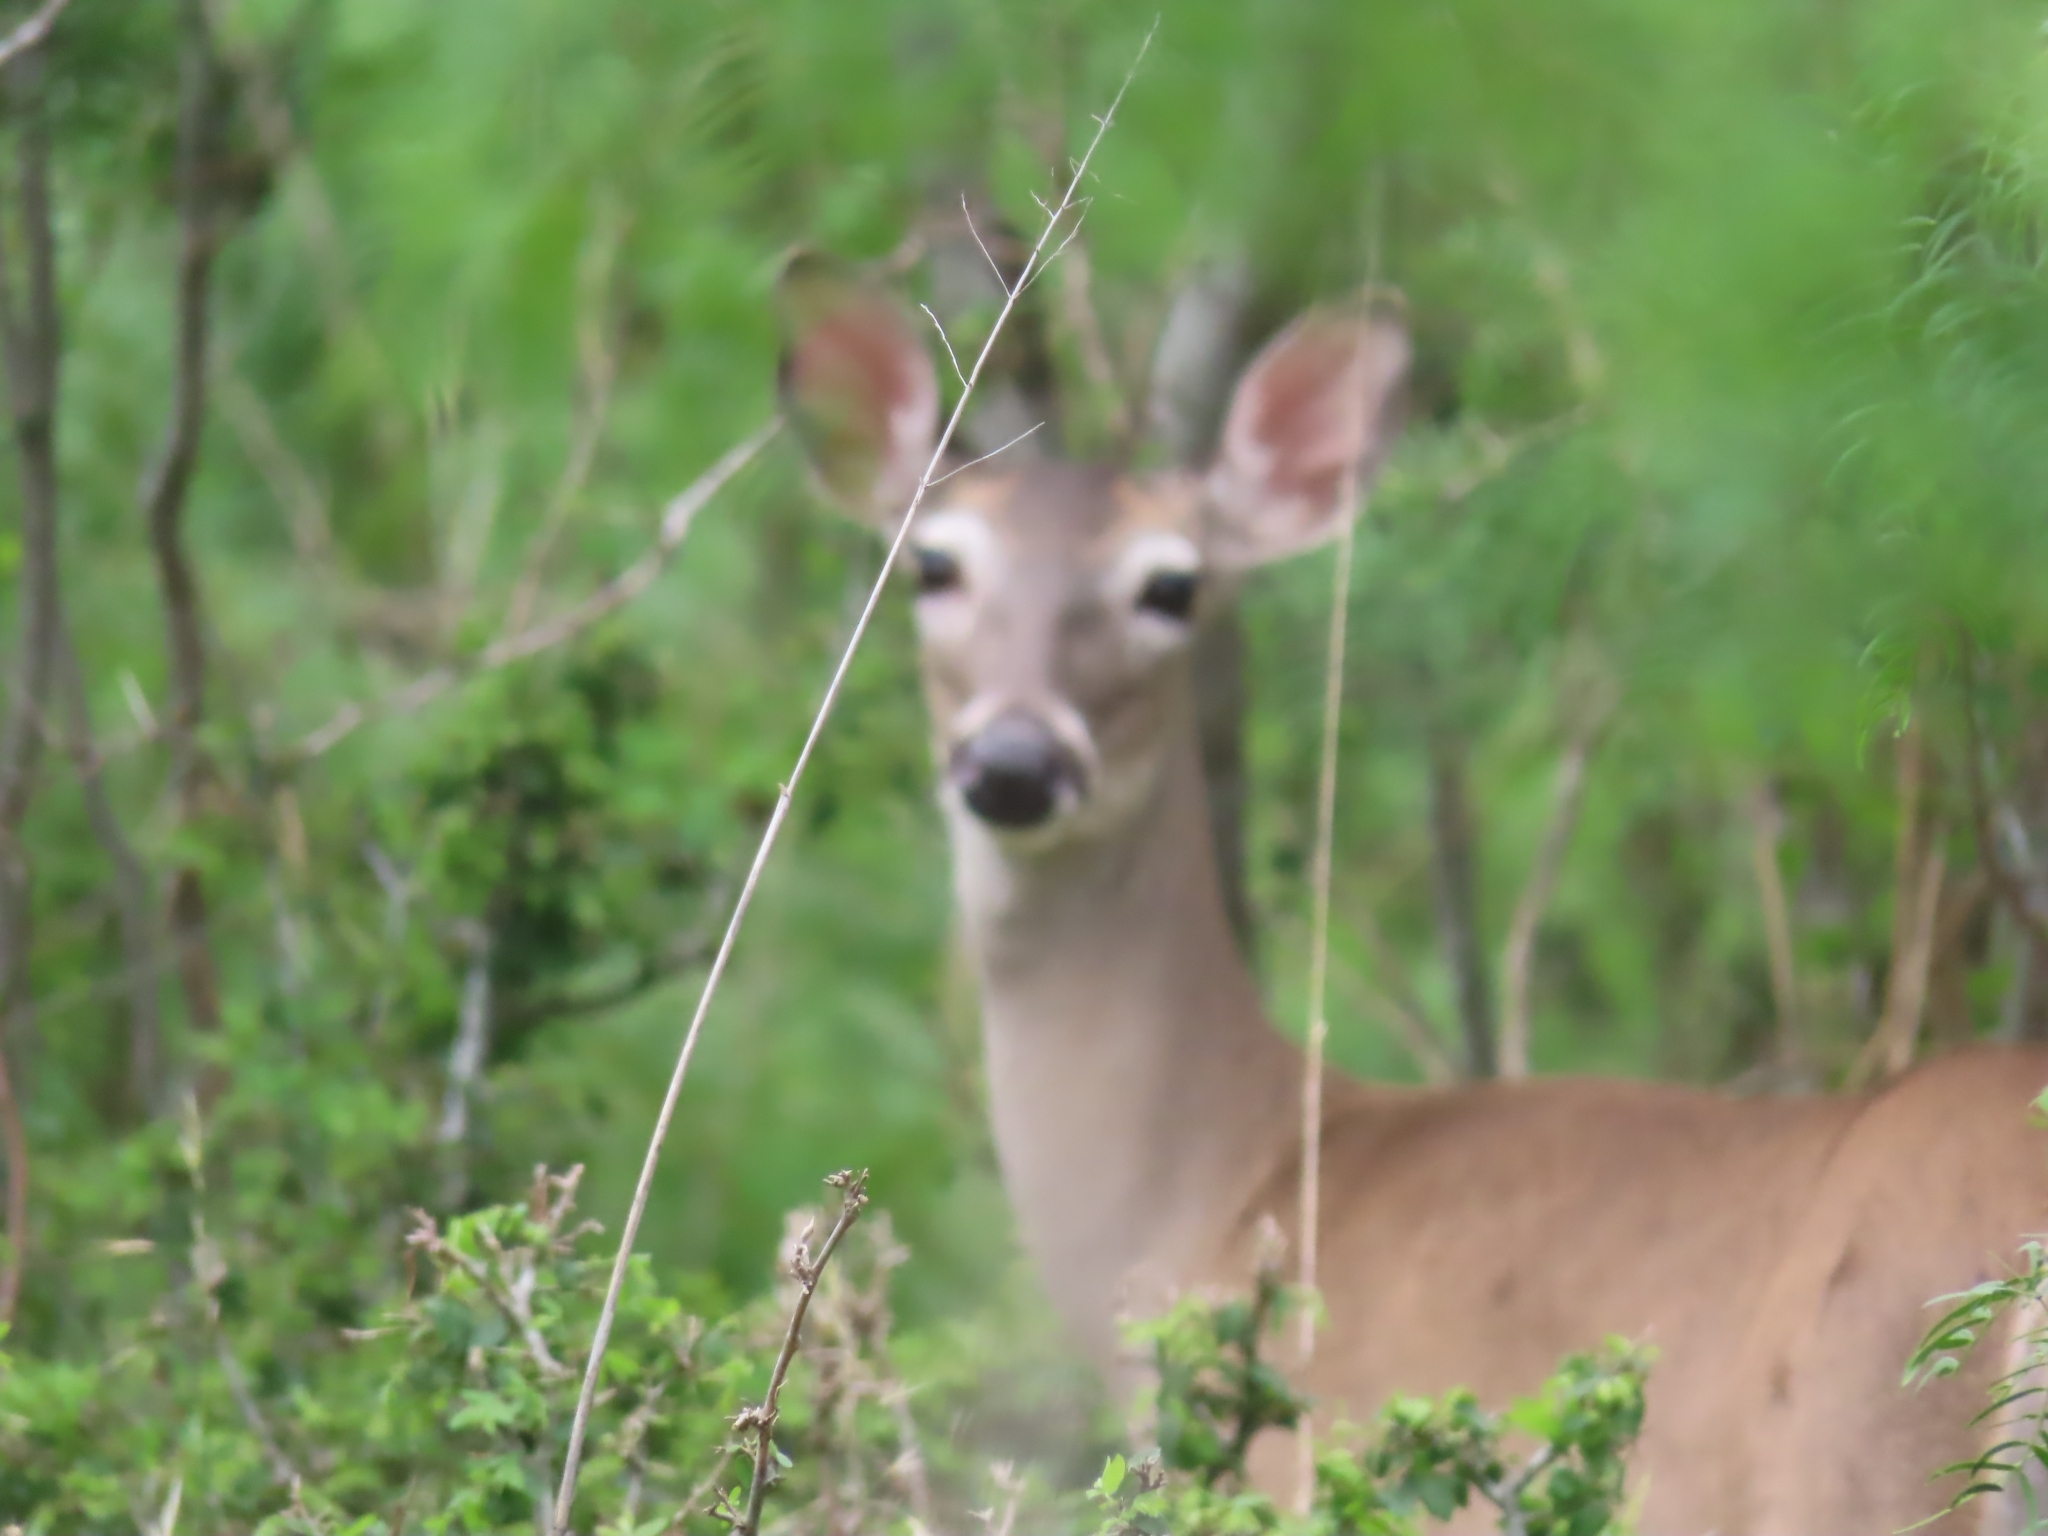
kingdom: Animalia
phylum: Chordata
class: Mammalia
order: Artiodactyla
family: Cervidae
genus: Odocoileus
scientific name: Odocoileus virginianus
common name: White-tailed deer
